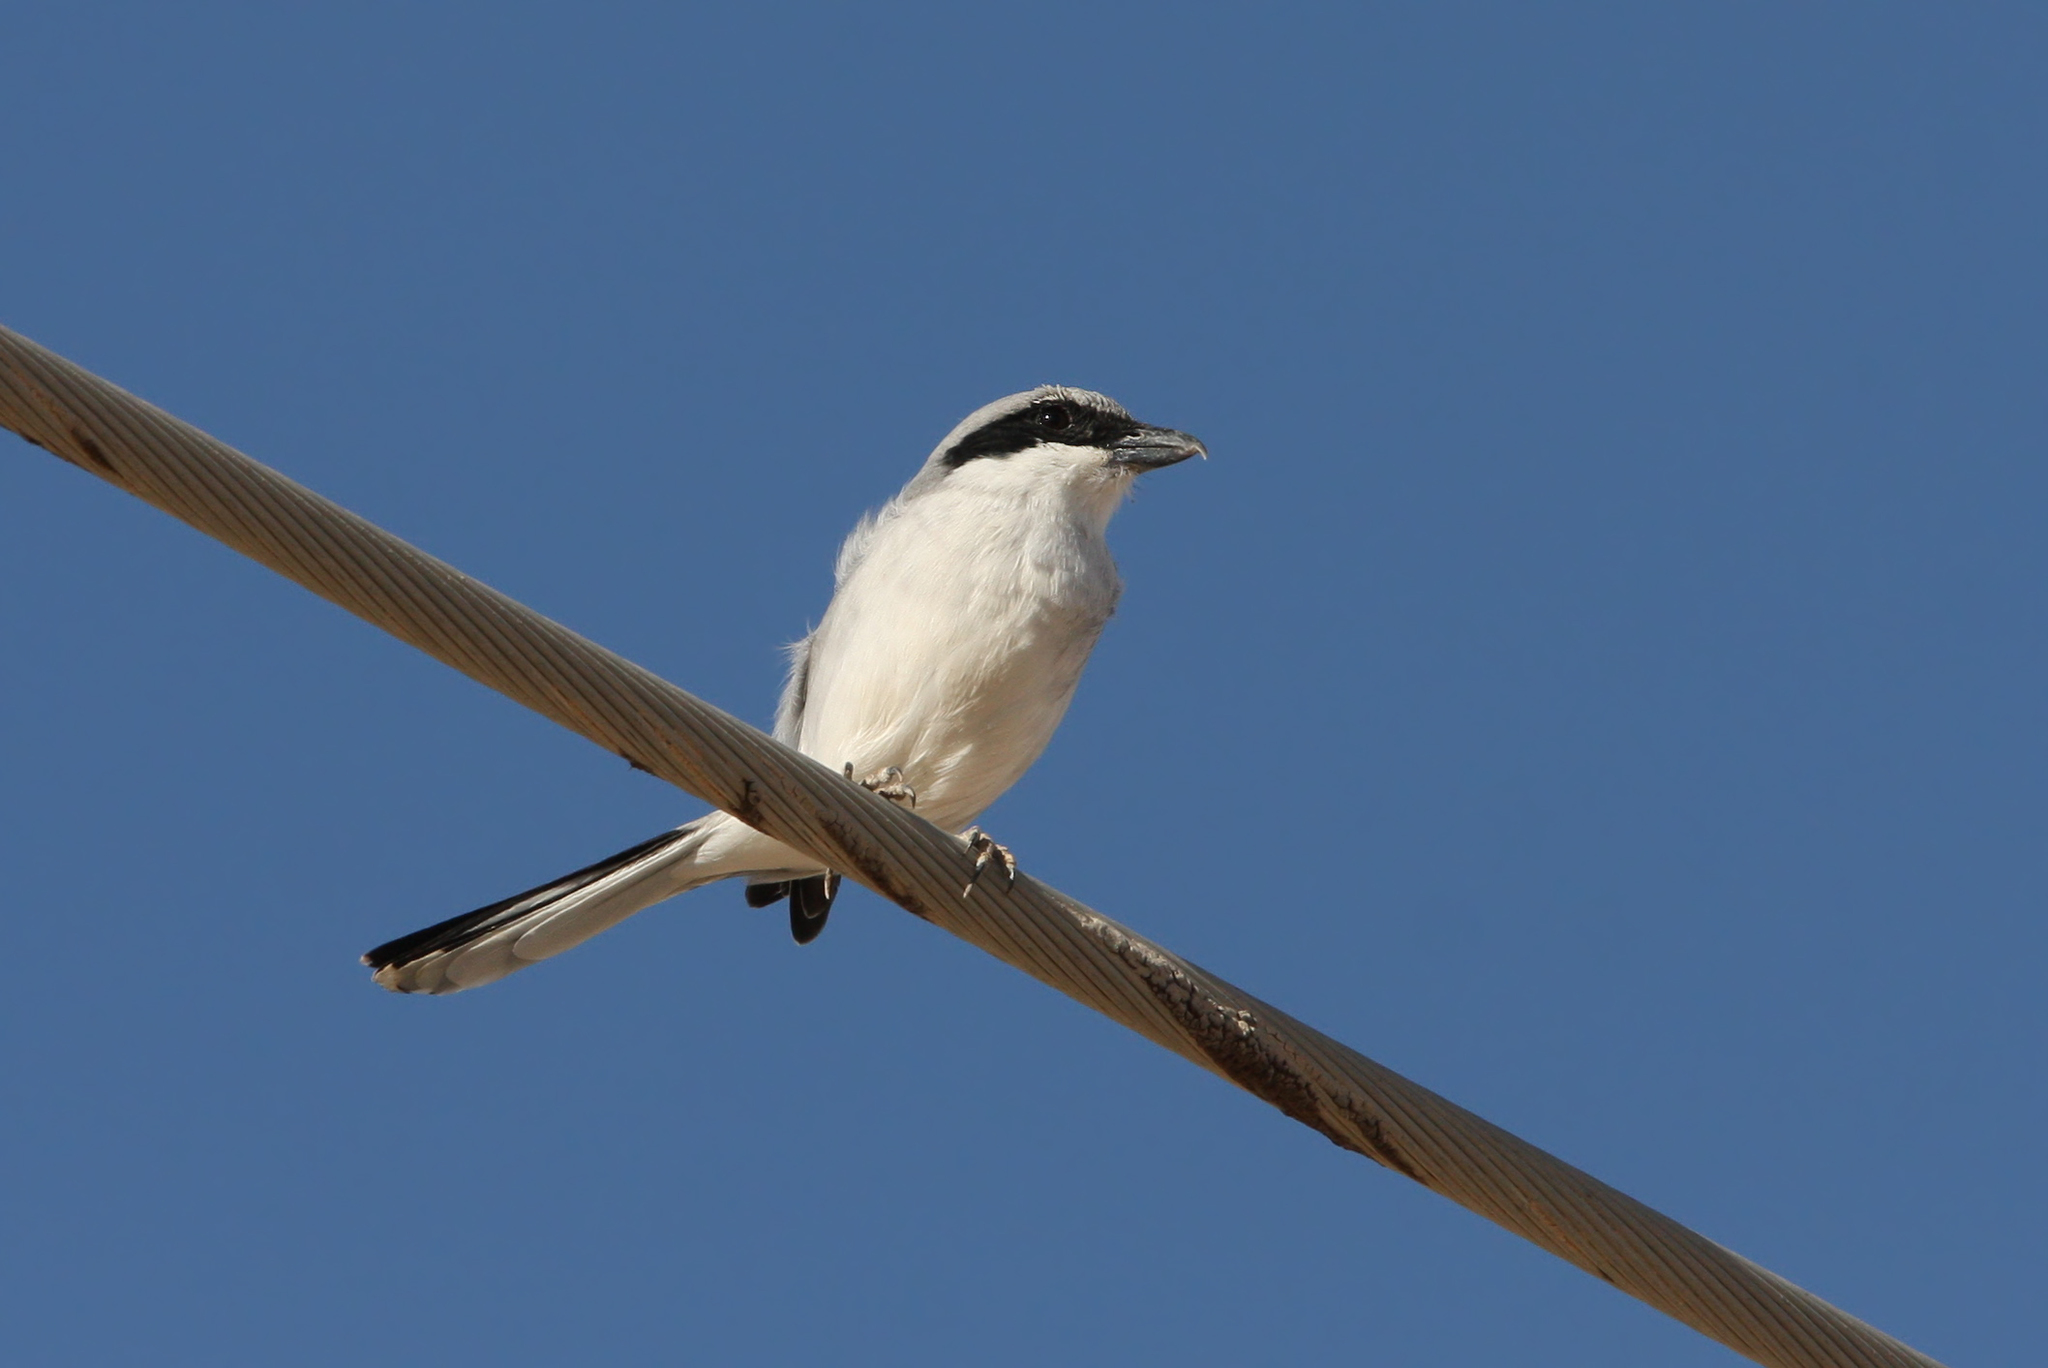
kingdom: Animalia
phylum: Chordata
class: Aves
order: Passeriformes
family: Laniidae
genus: Lanius
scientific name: Lanius excubitor
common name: Great grey shrike
